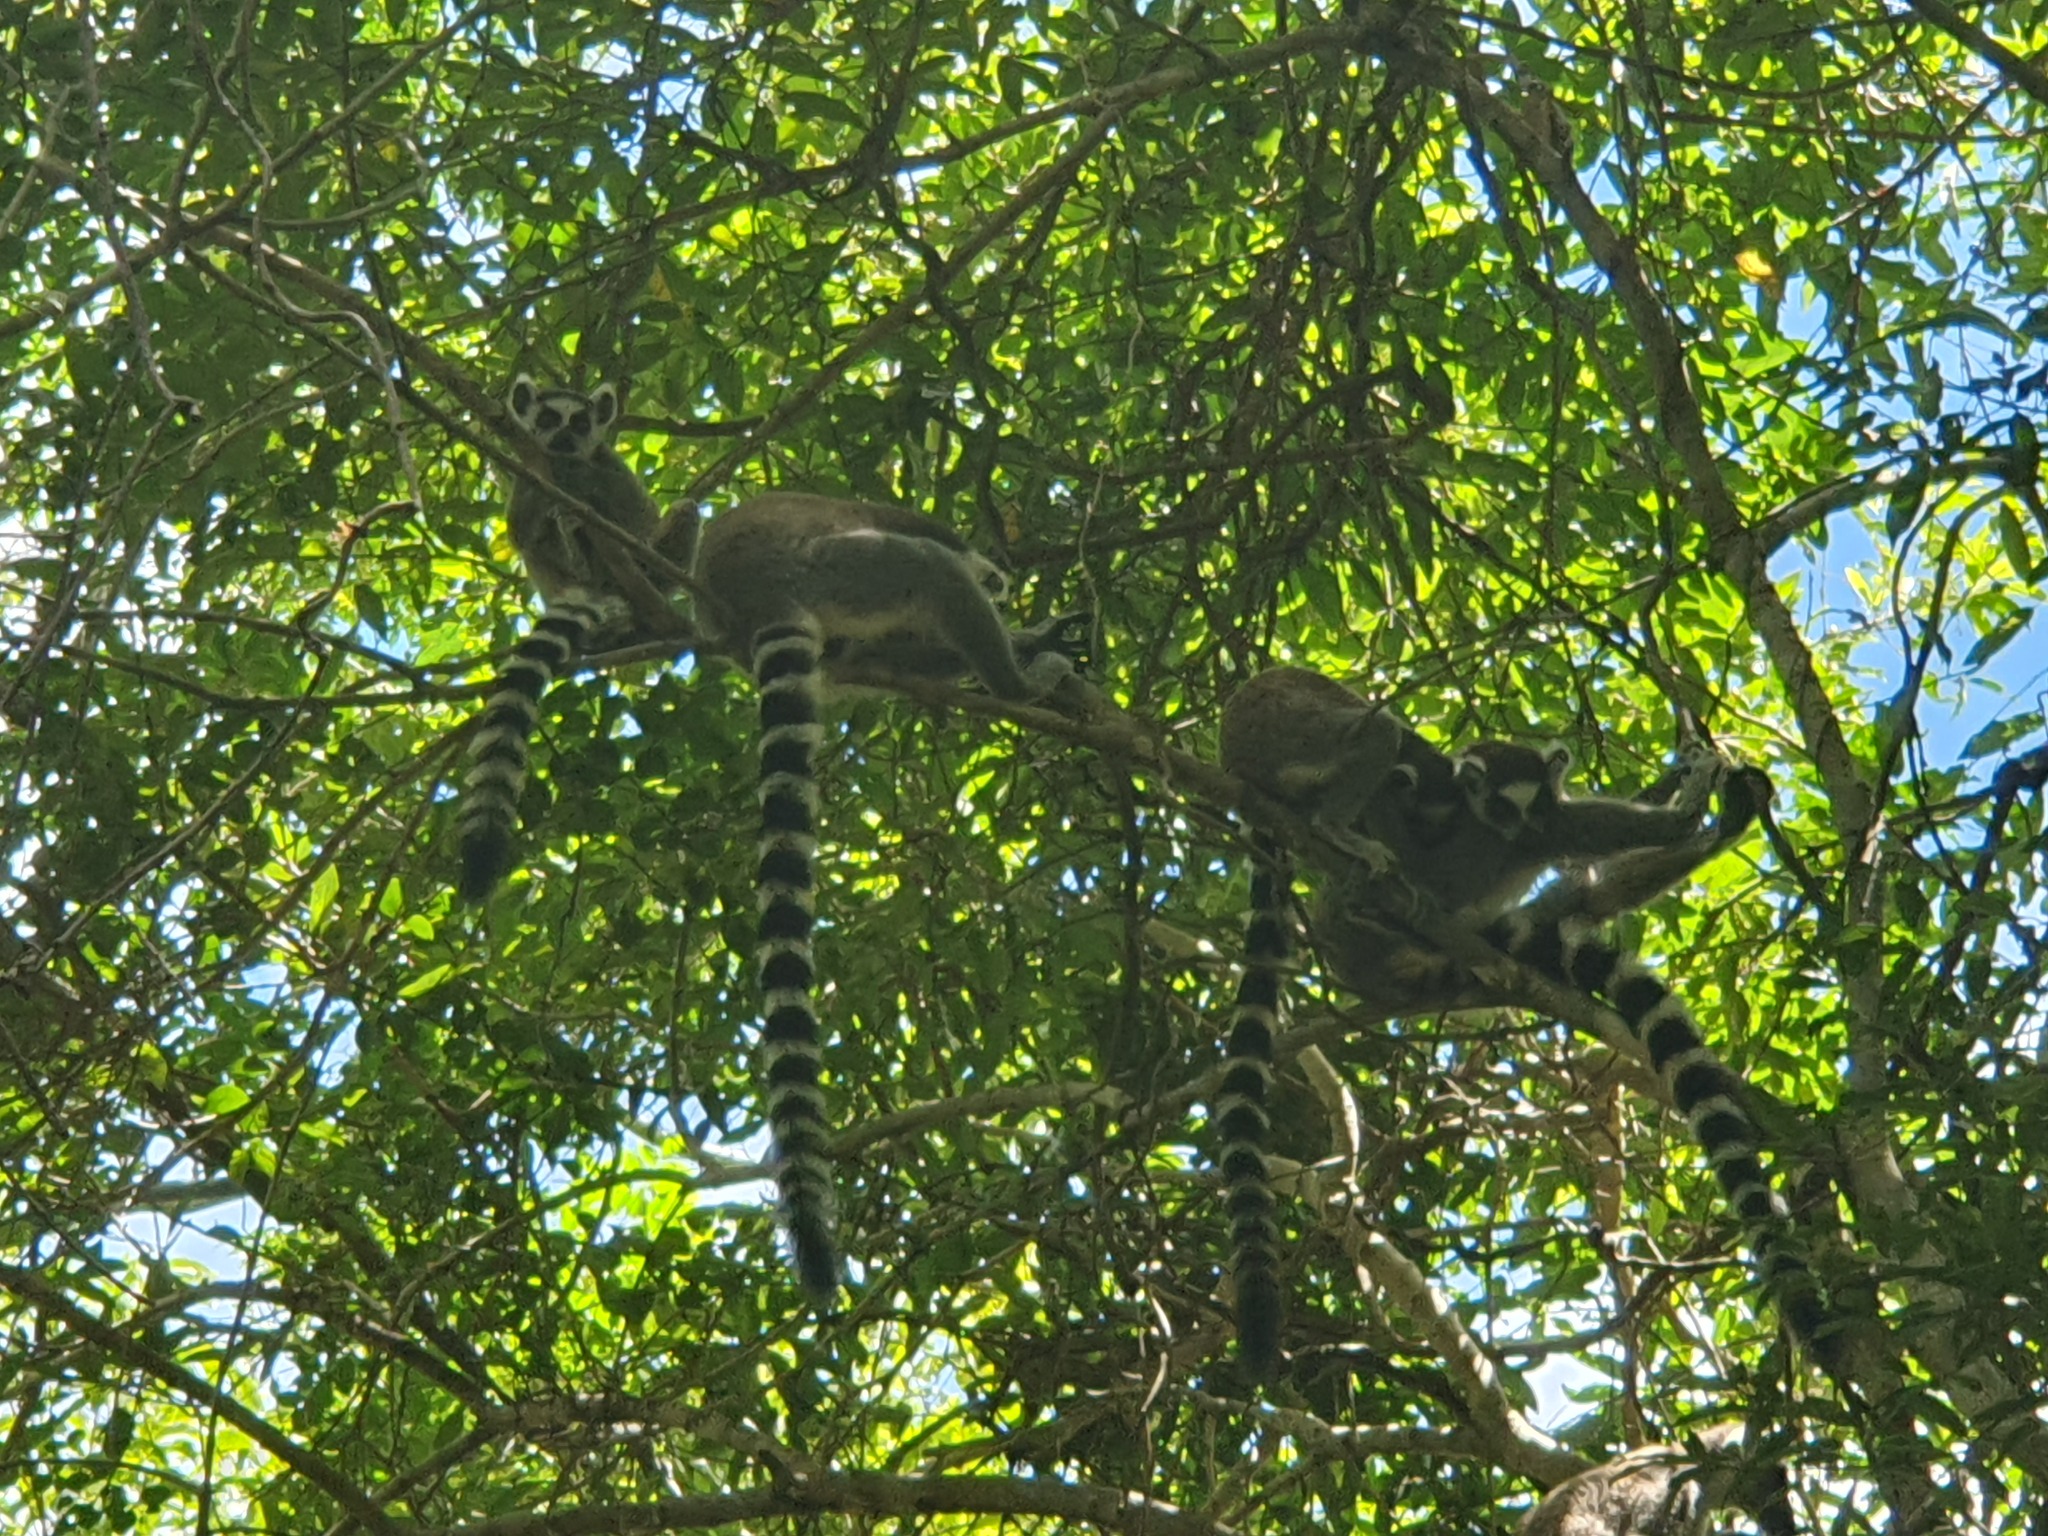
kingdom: Animalia
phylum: Chordata
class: Mammalia
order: Primates
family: Lemuridae
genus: Lemur
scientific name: Lemur catta
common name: Ring-tailed lemur
